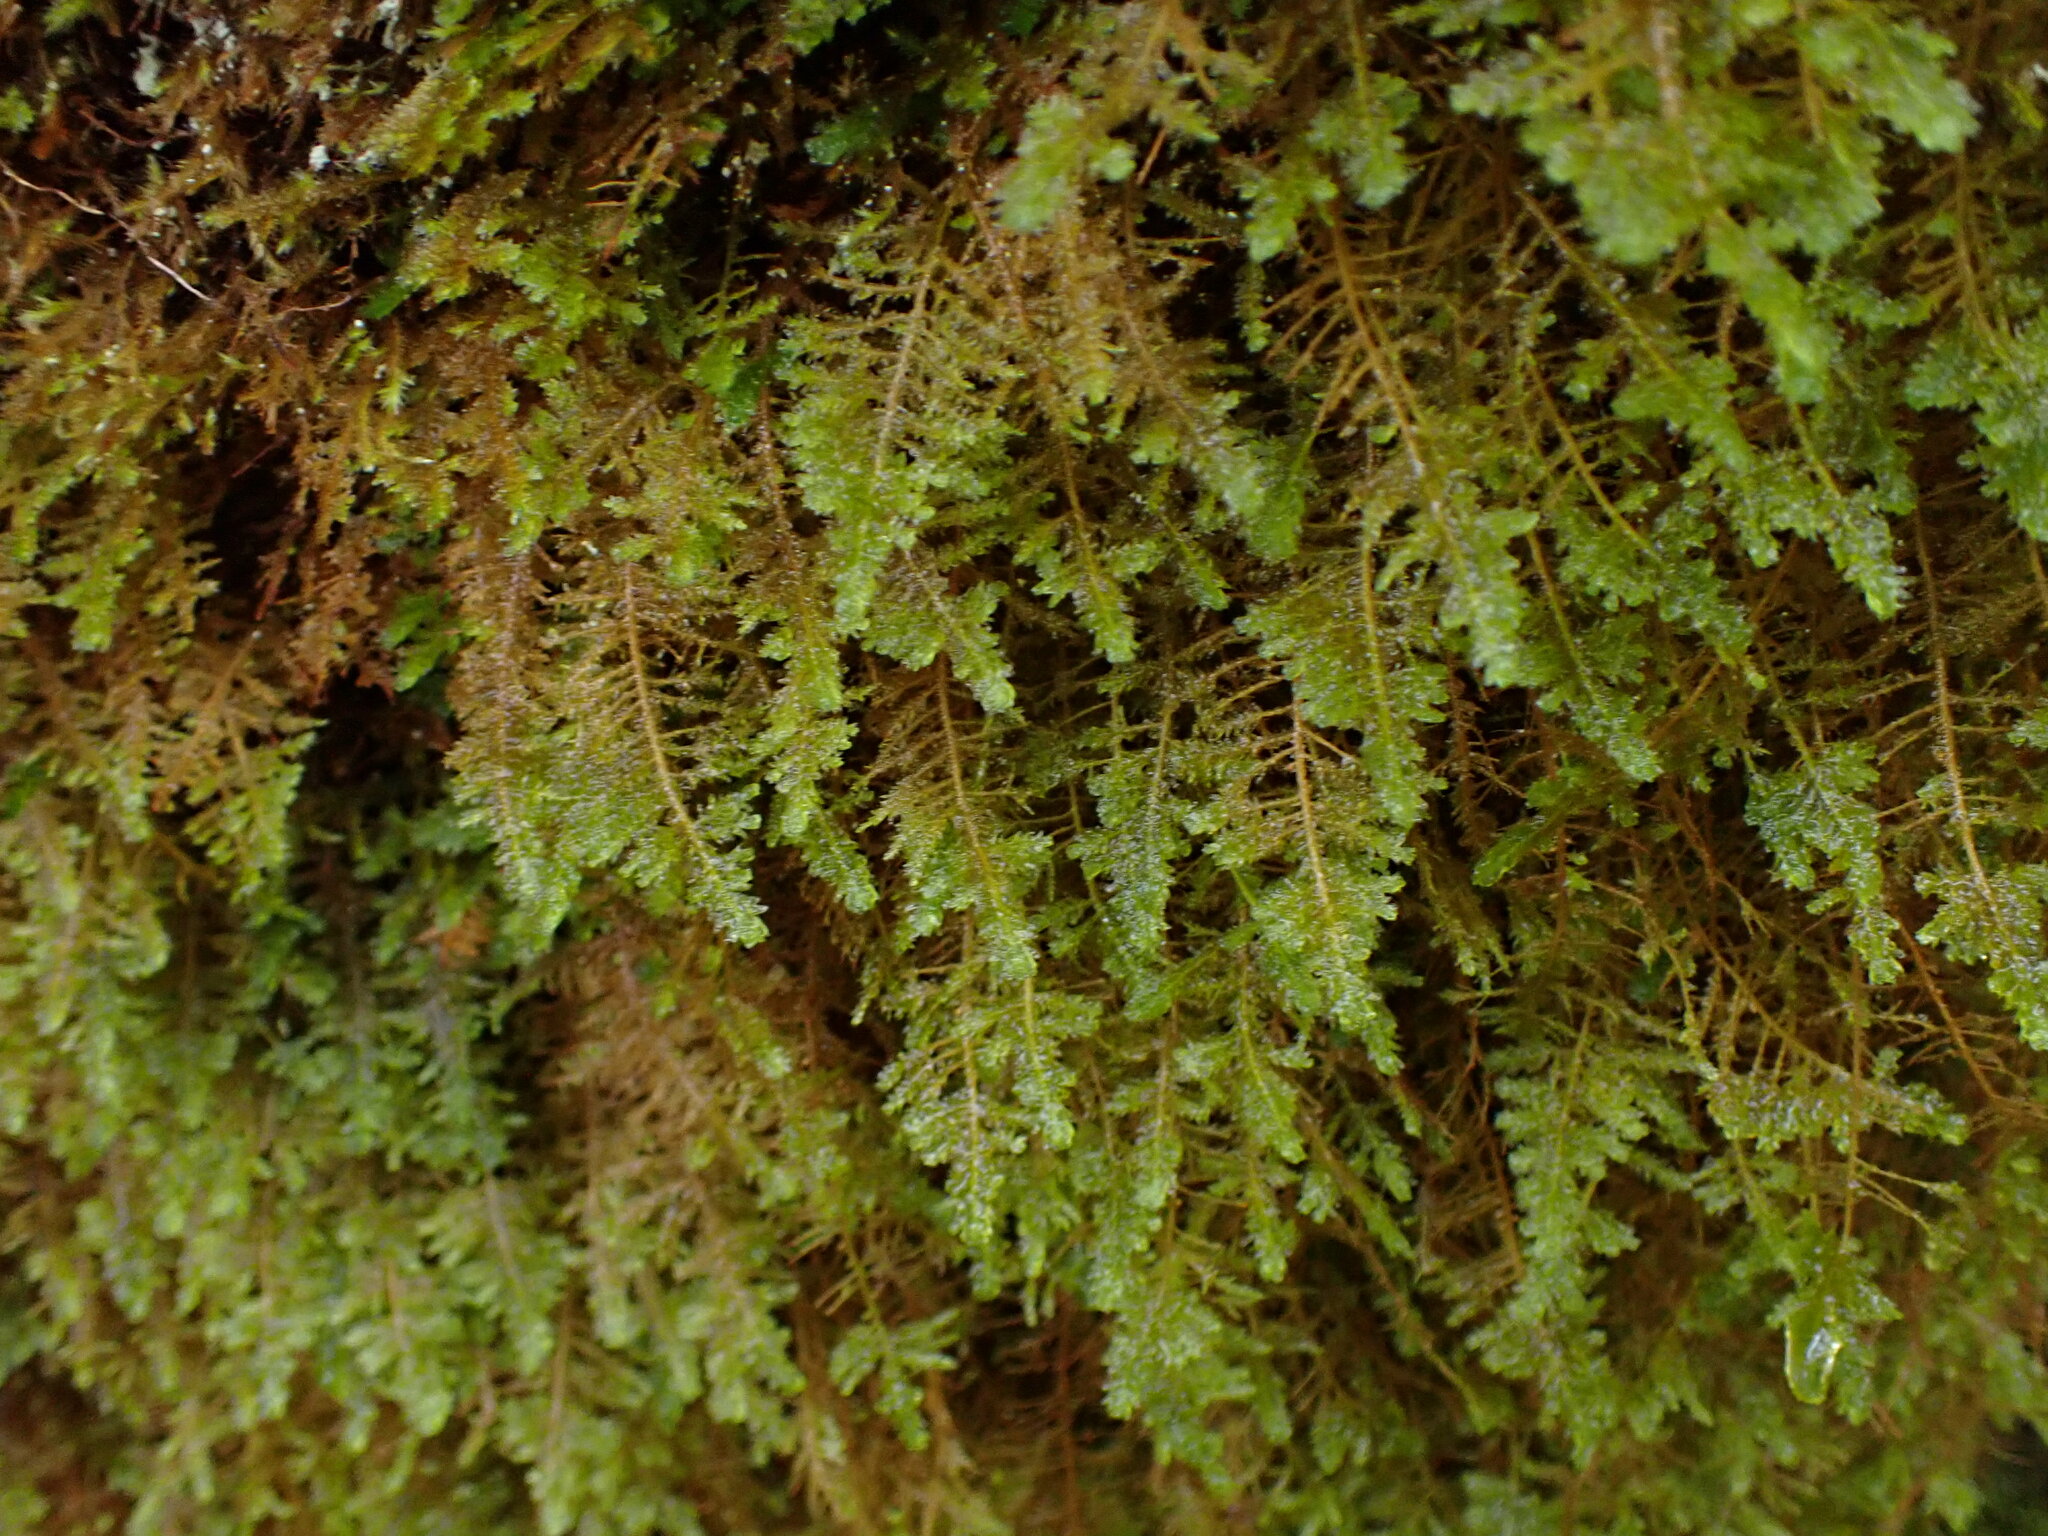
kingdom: Plantae
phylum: Bryophyta
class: Bryopsida
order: Hypnales
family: Neckeraceae
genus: Metaneckera
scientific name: Metaneckera menziesii
